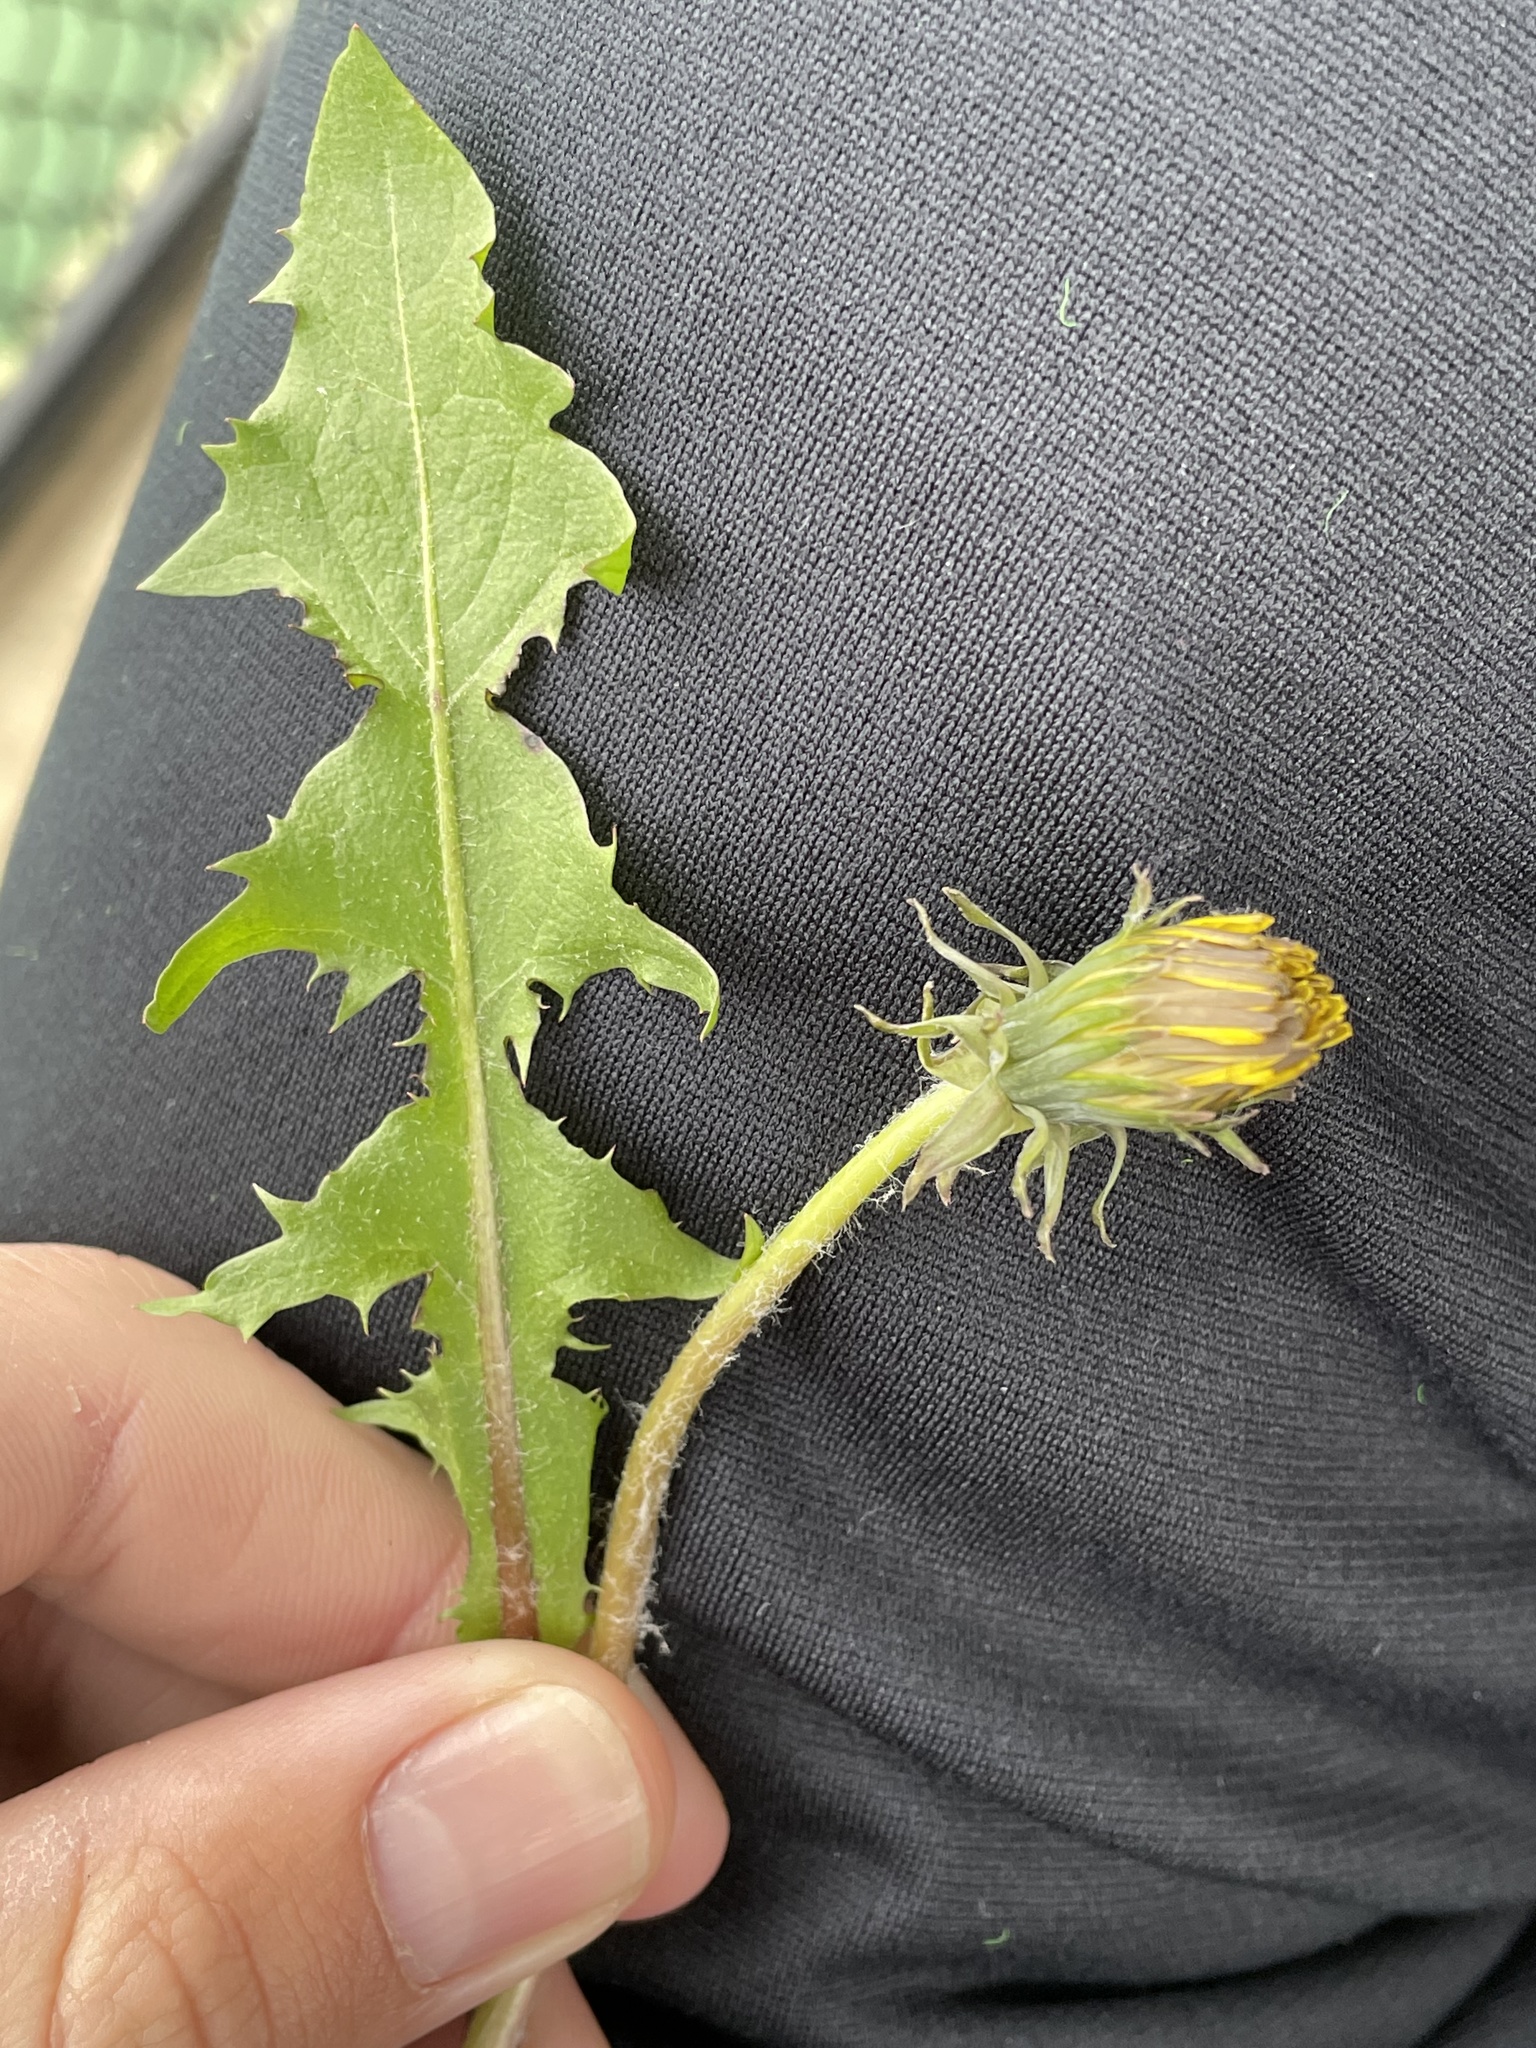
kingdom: Plantae
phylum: Tracheophyta
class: Magnoliopsida
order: Asterales
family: Asteraceae
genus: Taraxacum
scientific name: Taraxacum officinale
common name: Common dandelion
